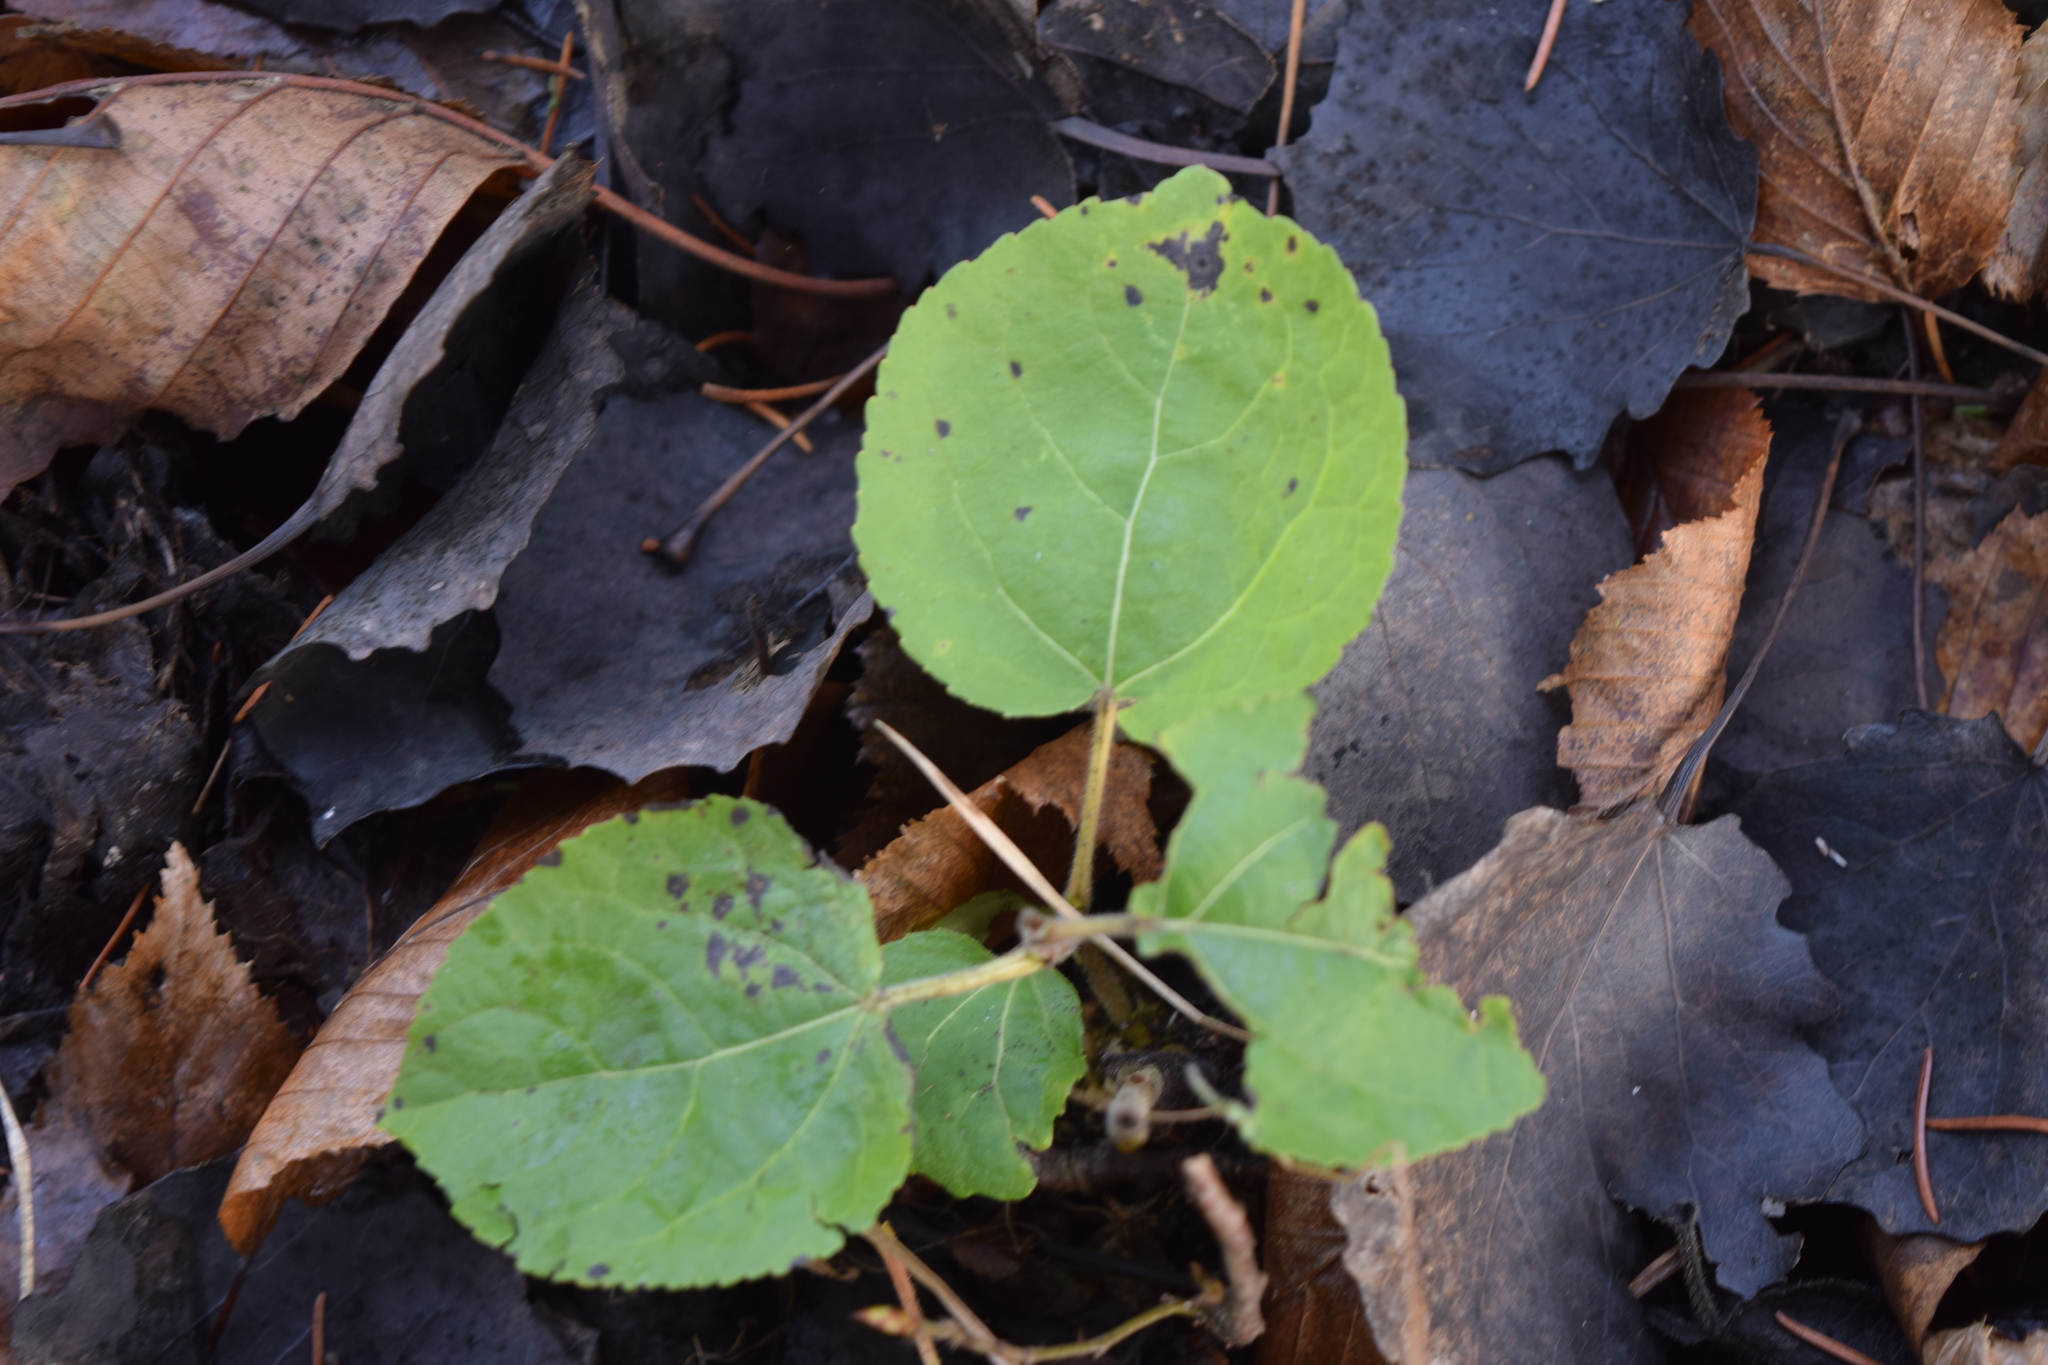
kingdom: Plantae
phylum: Tracheophyta
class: Magnoliopsida
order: Malpighiales
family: Salicaceae
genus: Populus
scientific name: Populus tremula
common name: European aspen
